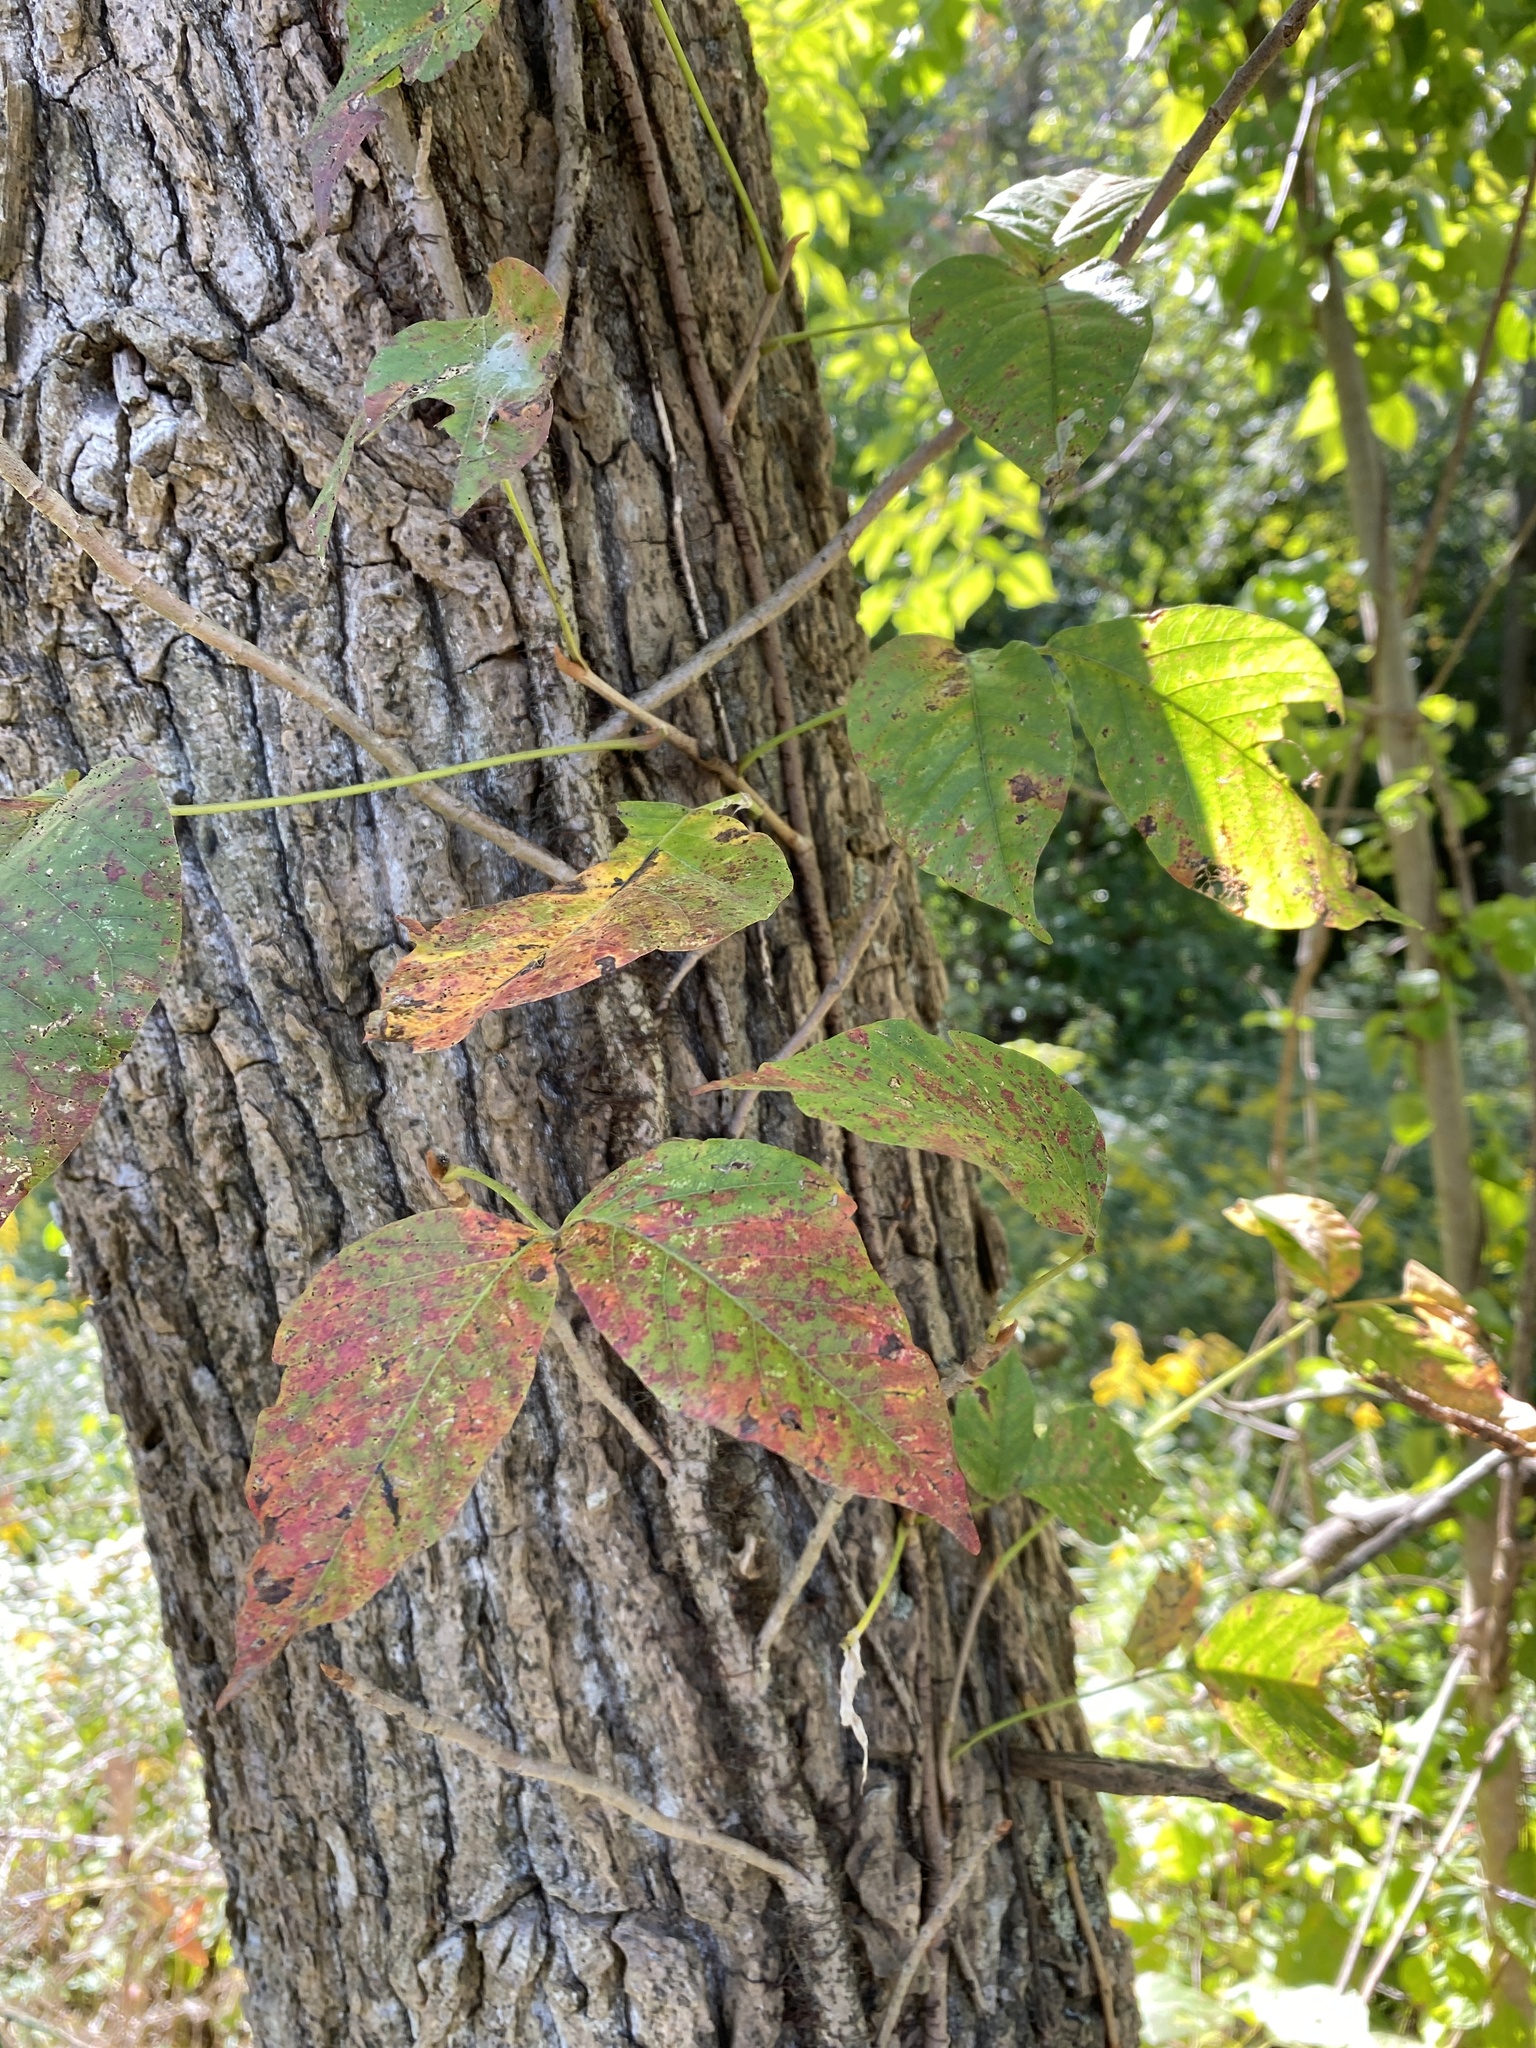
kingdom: Plantae
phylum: Tracheophyta
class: Magnoliopsida
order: Sapindales
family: Anacardiaceae
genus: Toxicodendron
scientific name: Toxicodendron radicans
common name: Poison ivy
